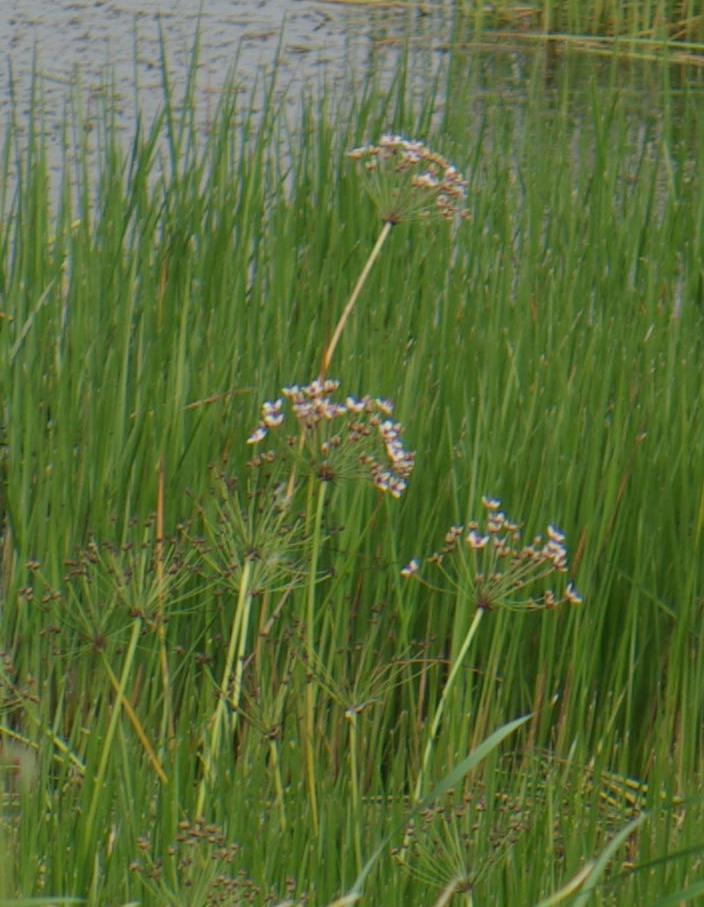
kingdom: Plantae
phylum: Tracheophyta
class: Liliopsida
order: Alismatales
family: Butomaceae
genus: Butomus
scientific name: Butomus umbellatus
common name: Flowering-rush
